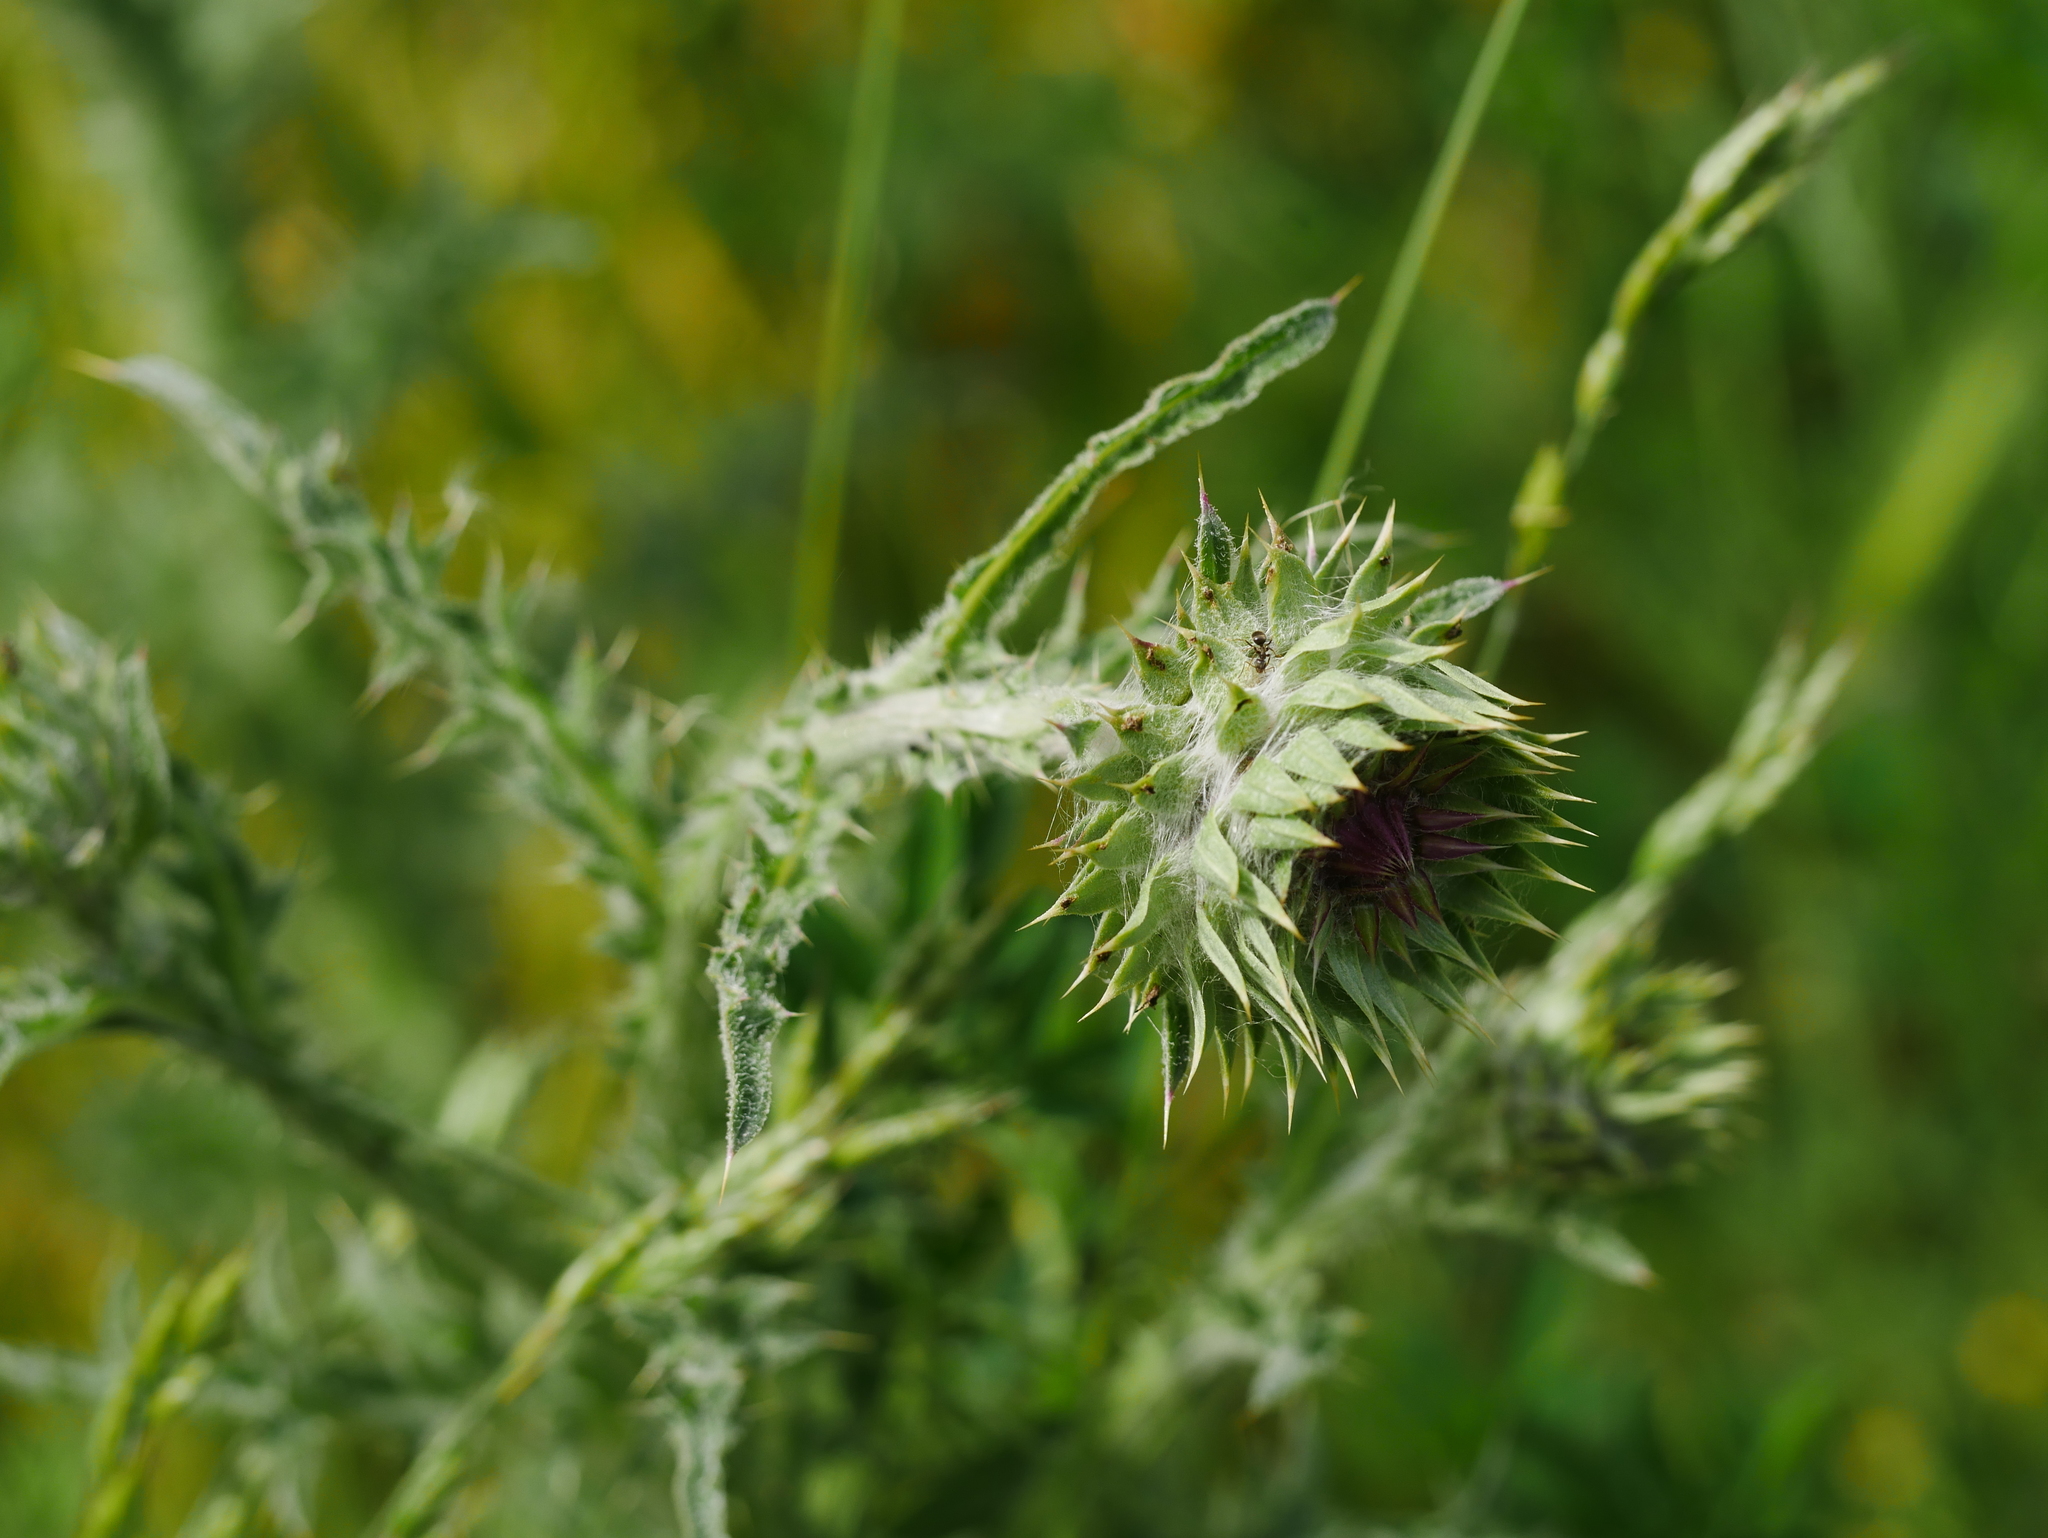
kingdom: Plantae
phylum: Tracheophyta
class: Magnoliopsida
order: Asterales
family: Asteraceae
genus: Carduus
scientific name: Carduus nutans
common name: Musk thistle
